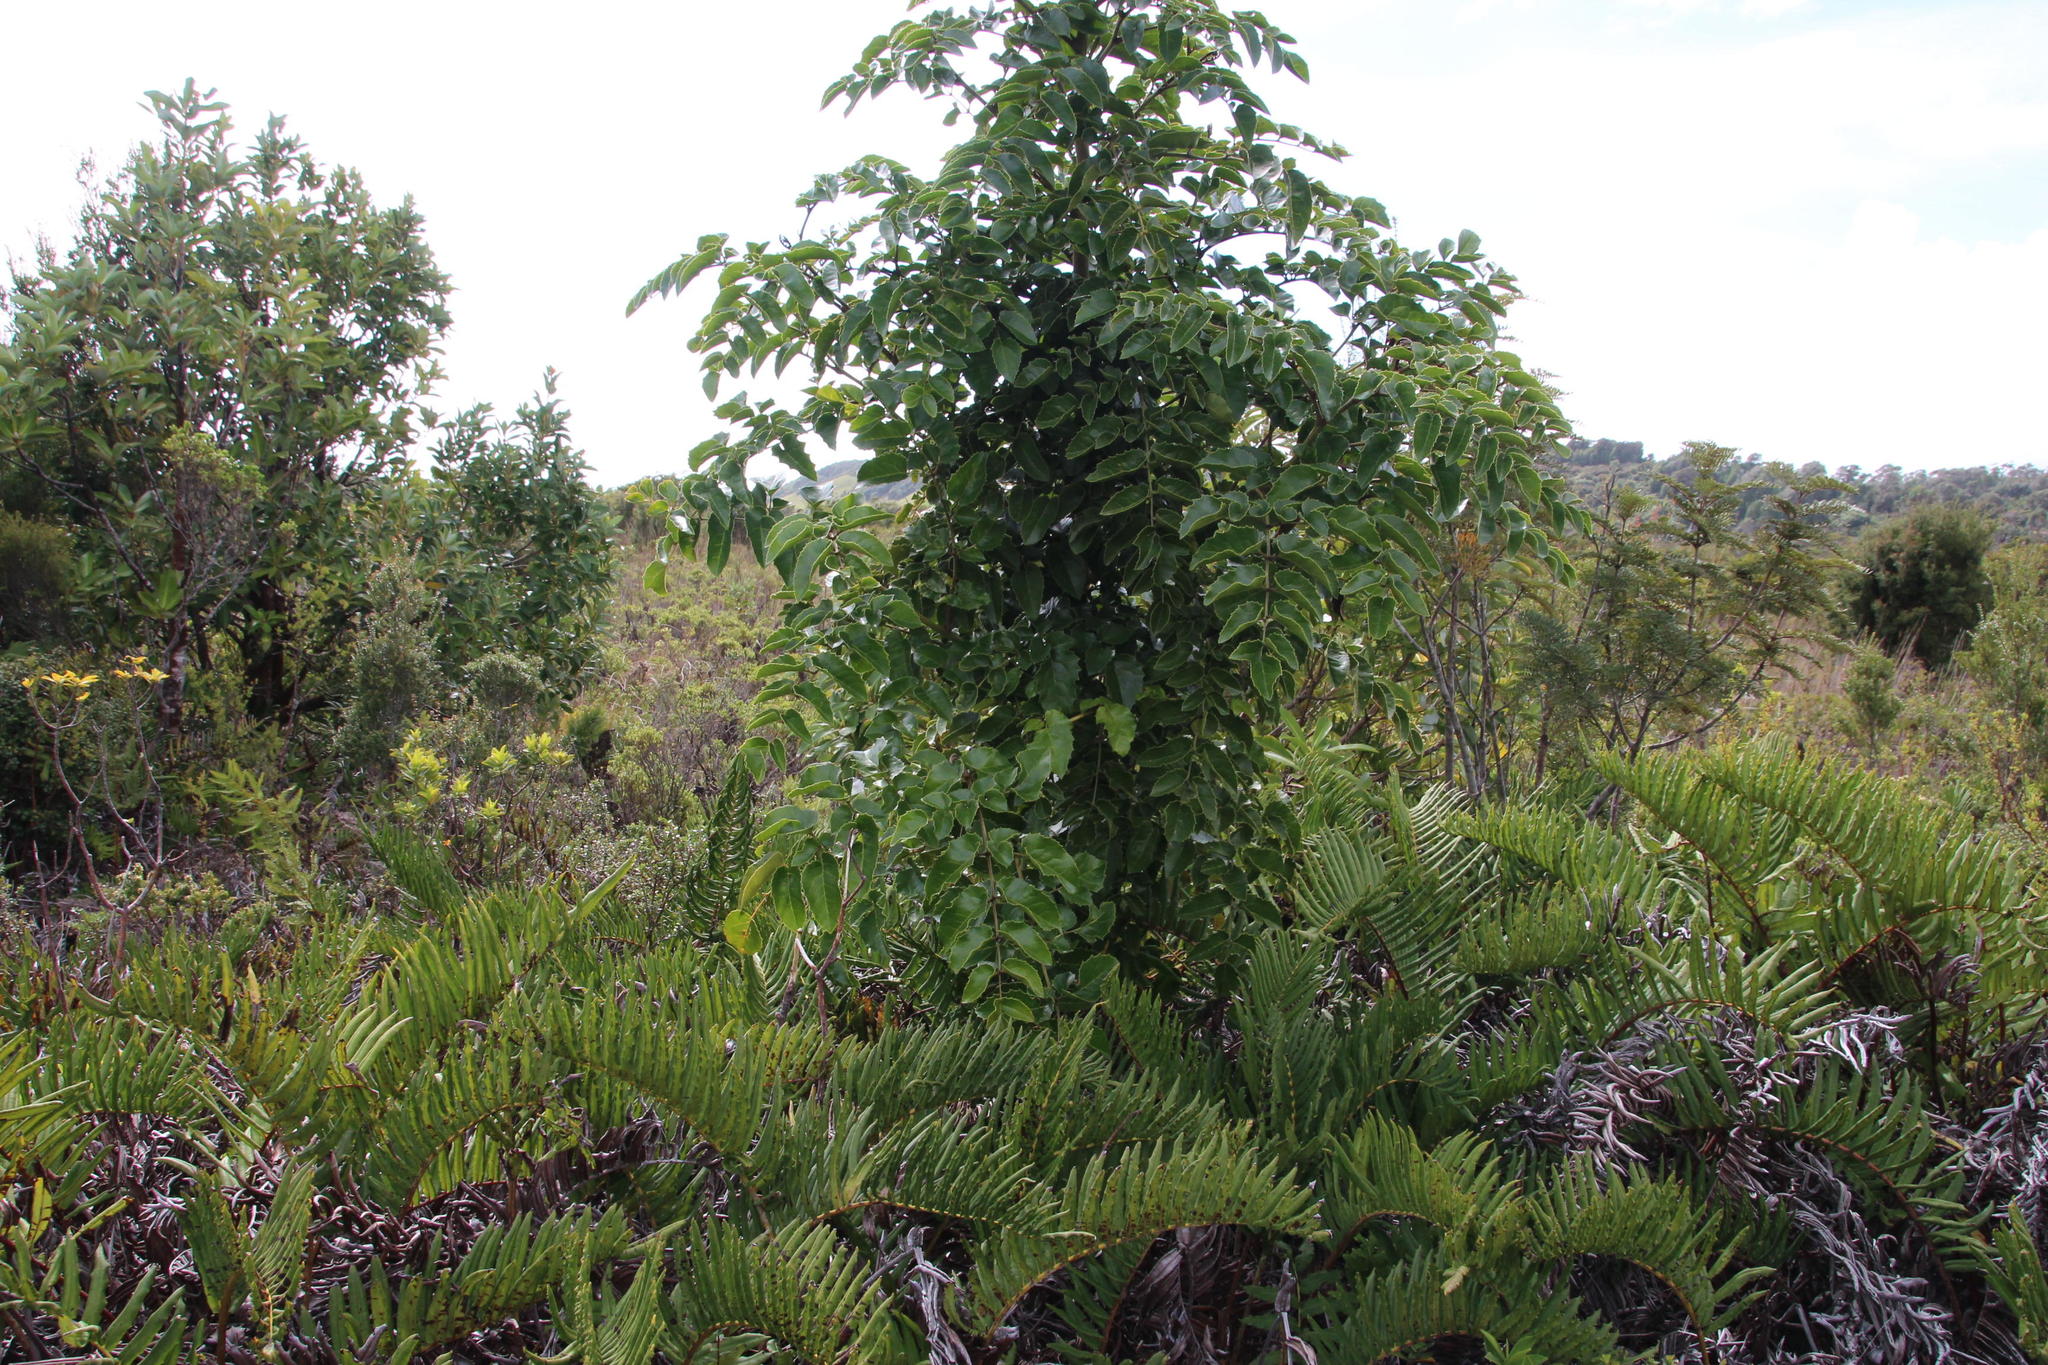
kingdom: Plantae
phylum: Tracheophyta
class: Magnoliopsida
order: Proteales
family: Proteaceae
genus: Gevuina
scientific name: Gevuina avellana
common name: Chilean hazel
